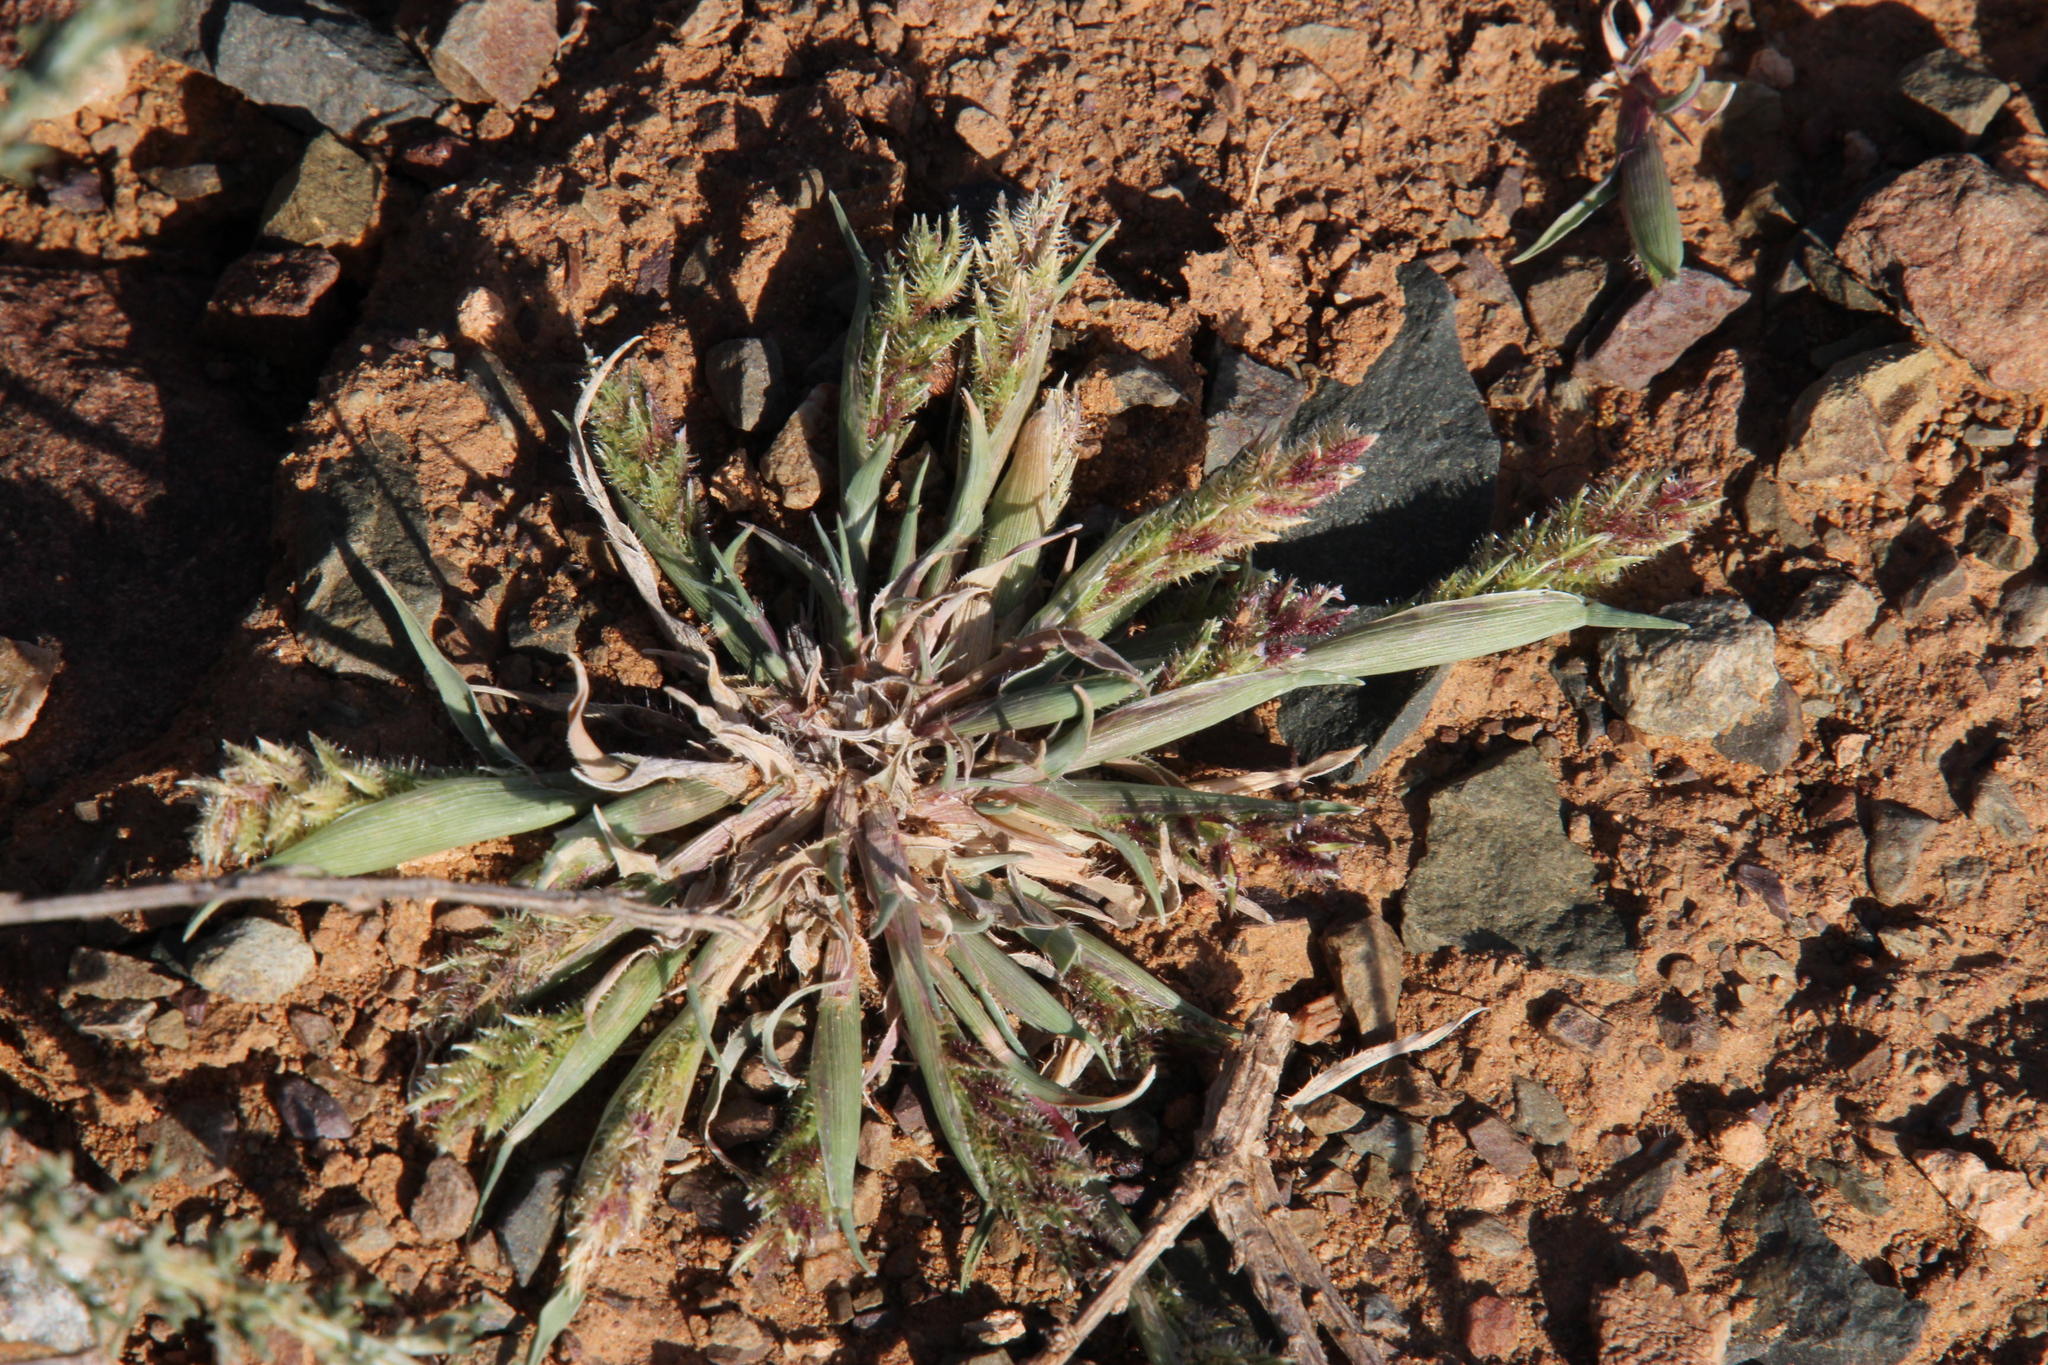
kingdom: Plantae
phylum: Tracheophyta
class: Liliopsida
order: Poales
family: Poaceae
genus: Tragus
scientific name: Tragus berteronianus
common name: African bur-grass
